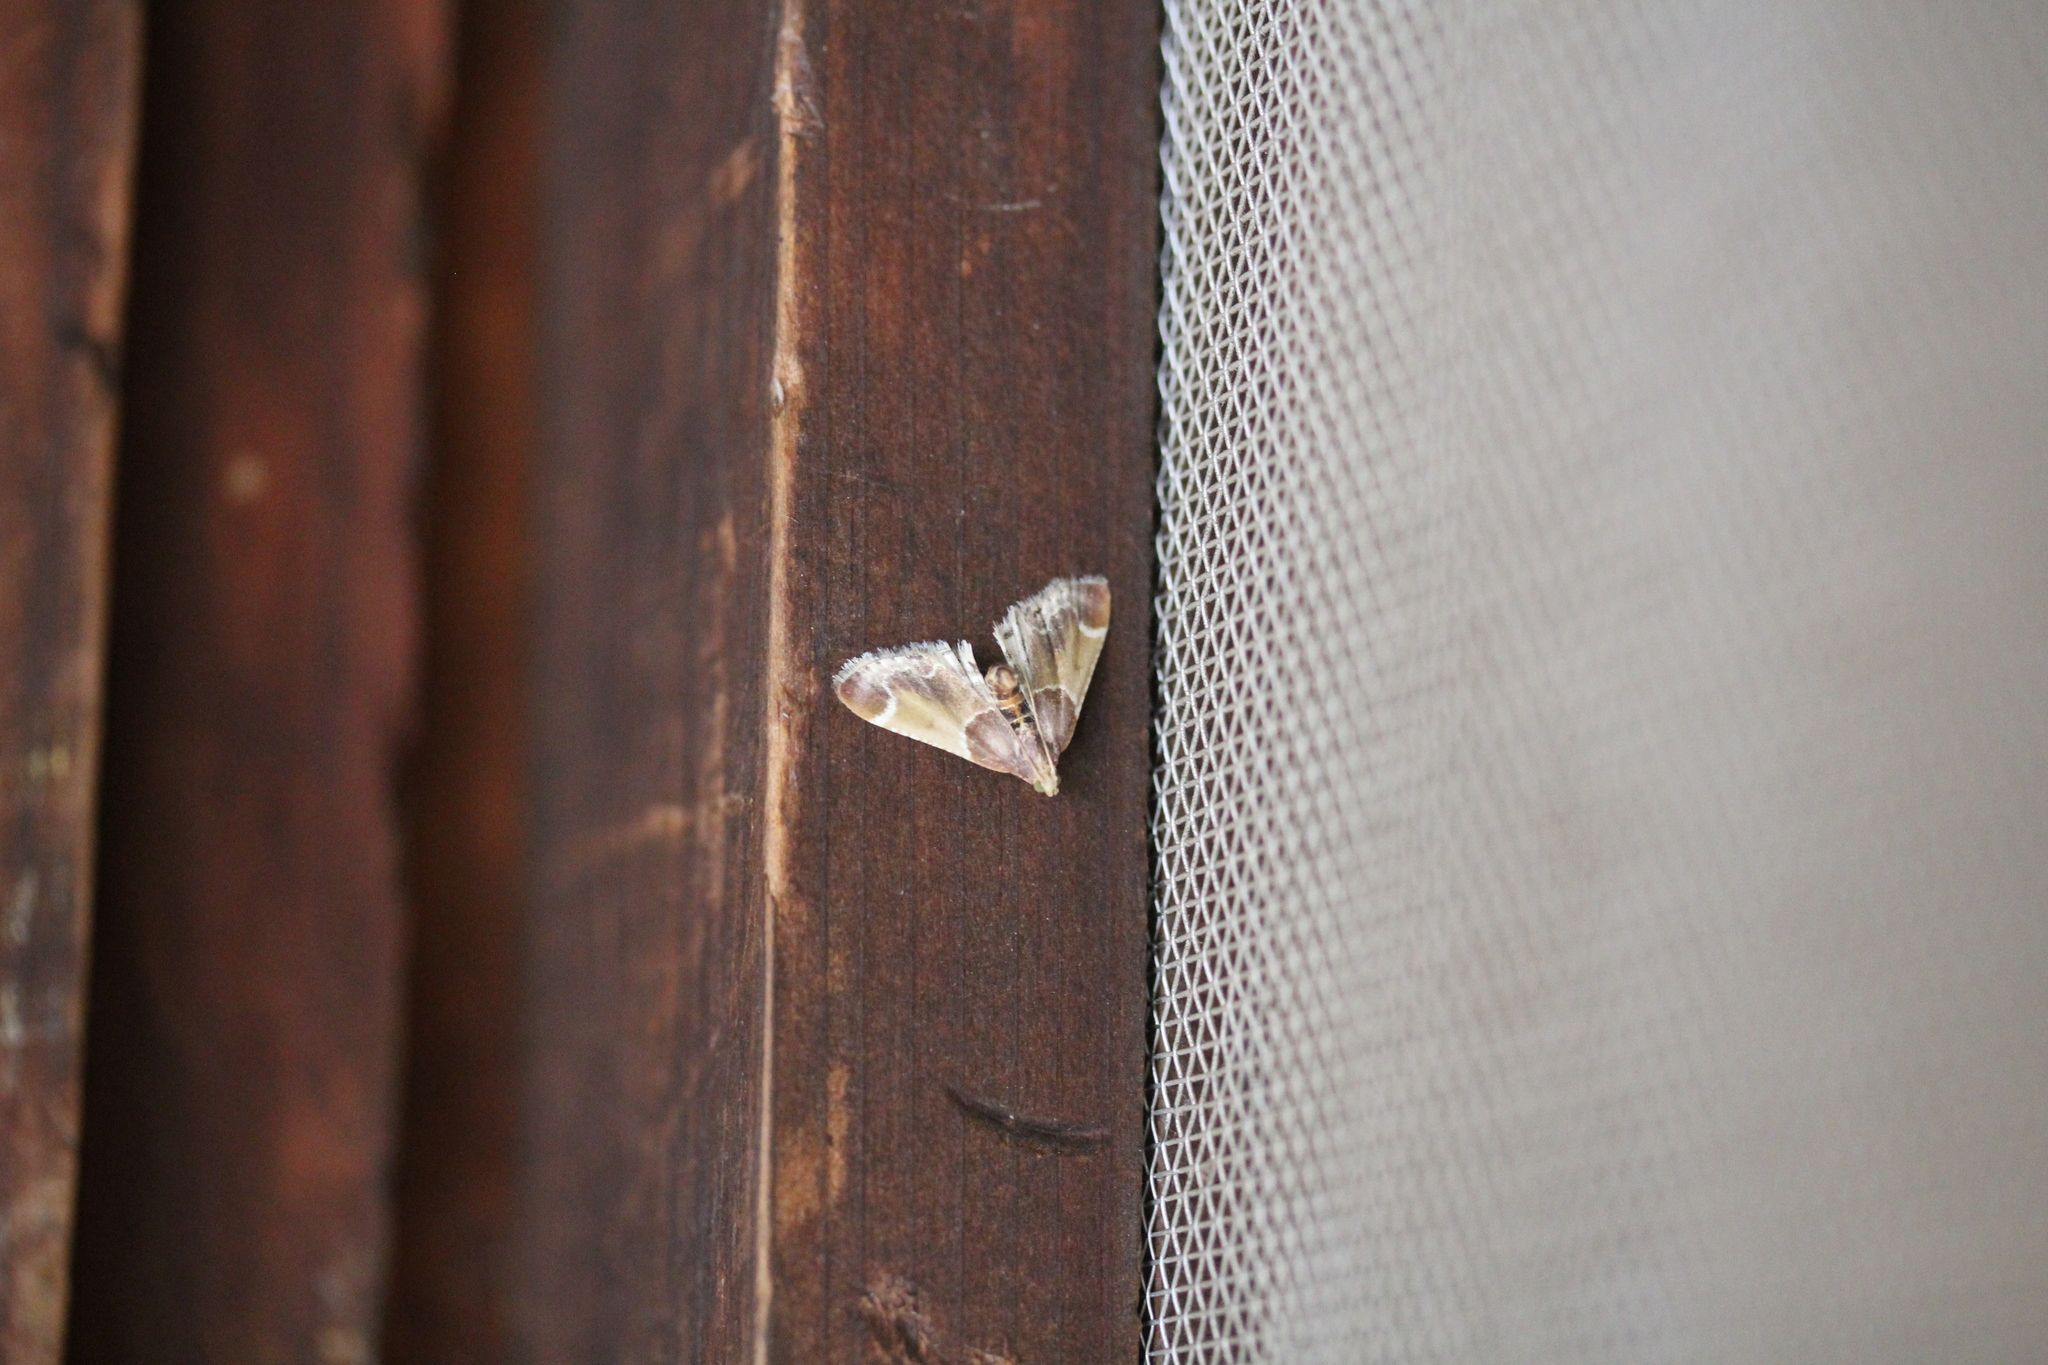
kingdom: Animalia
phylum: Arthropoda
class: Insecta
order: Lepidoptera
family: Pyralidae
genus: Pyralis
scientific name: Pyralis farinalis
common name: Meal moth
